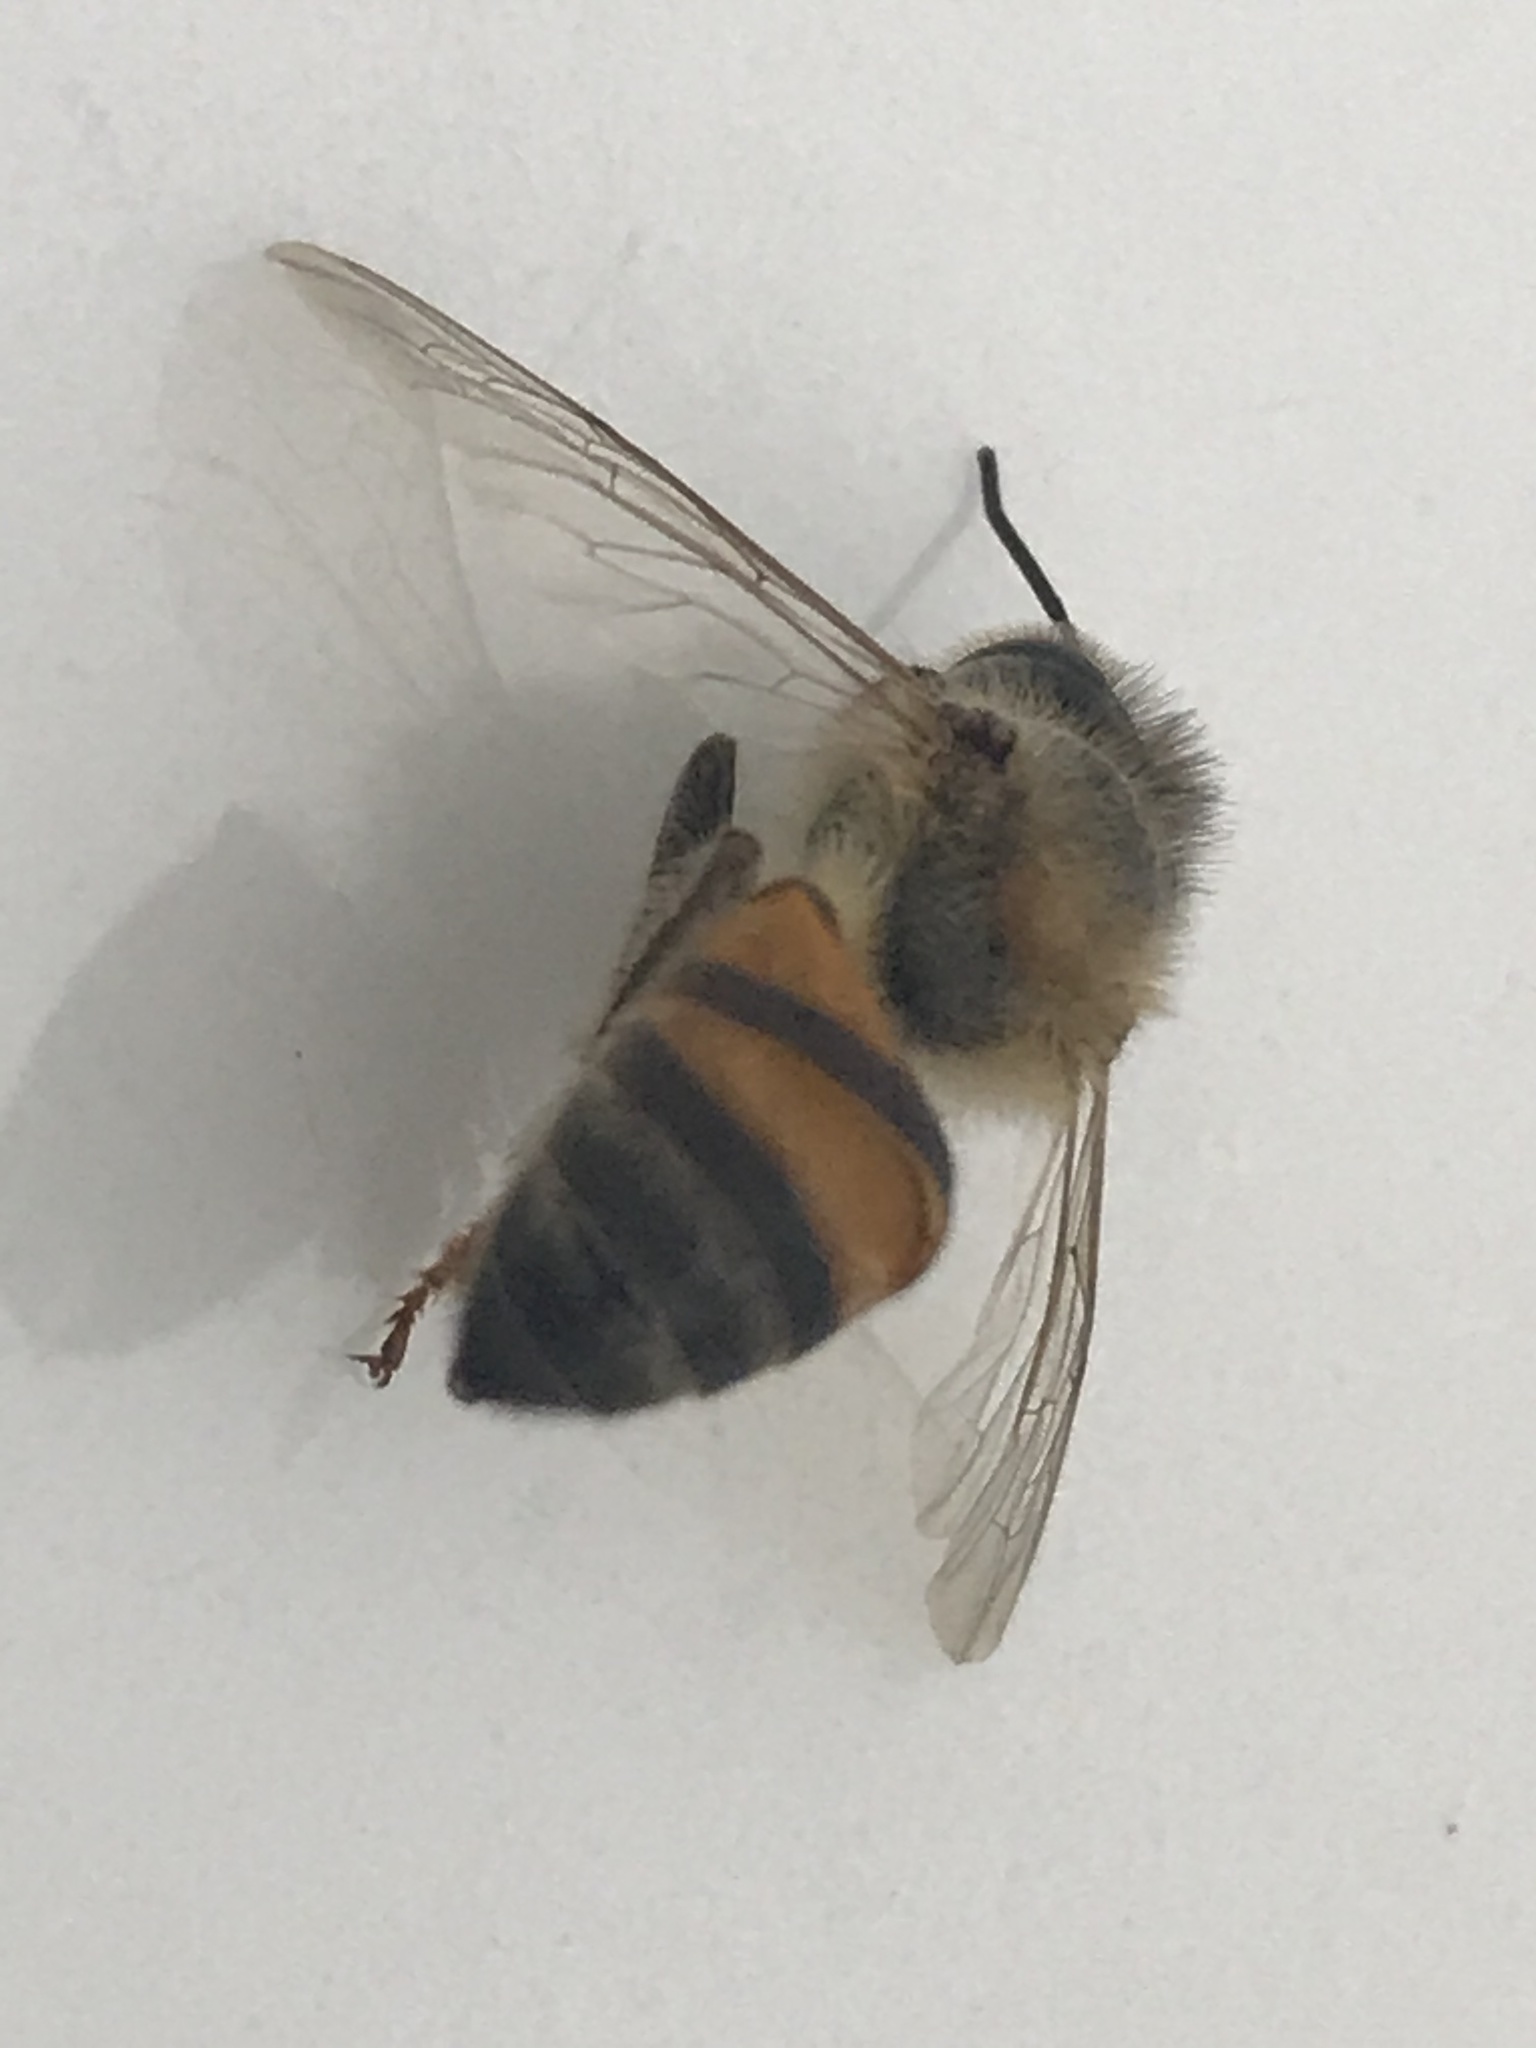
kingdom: Animalia
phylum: Arthropoda
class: Insecta
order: Hymenoptera
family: Apidae
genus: Apis
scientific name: Apis mellifera
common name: Honey bee
